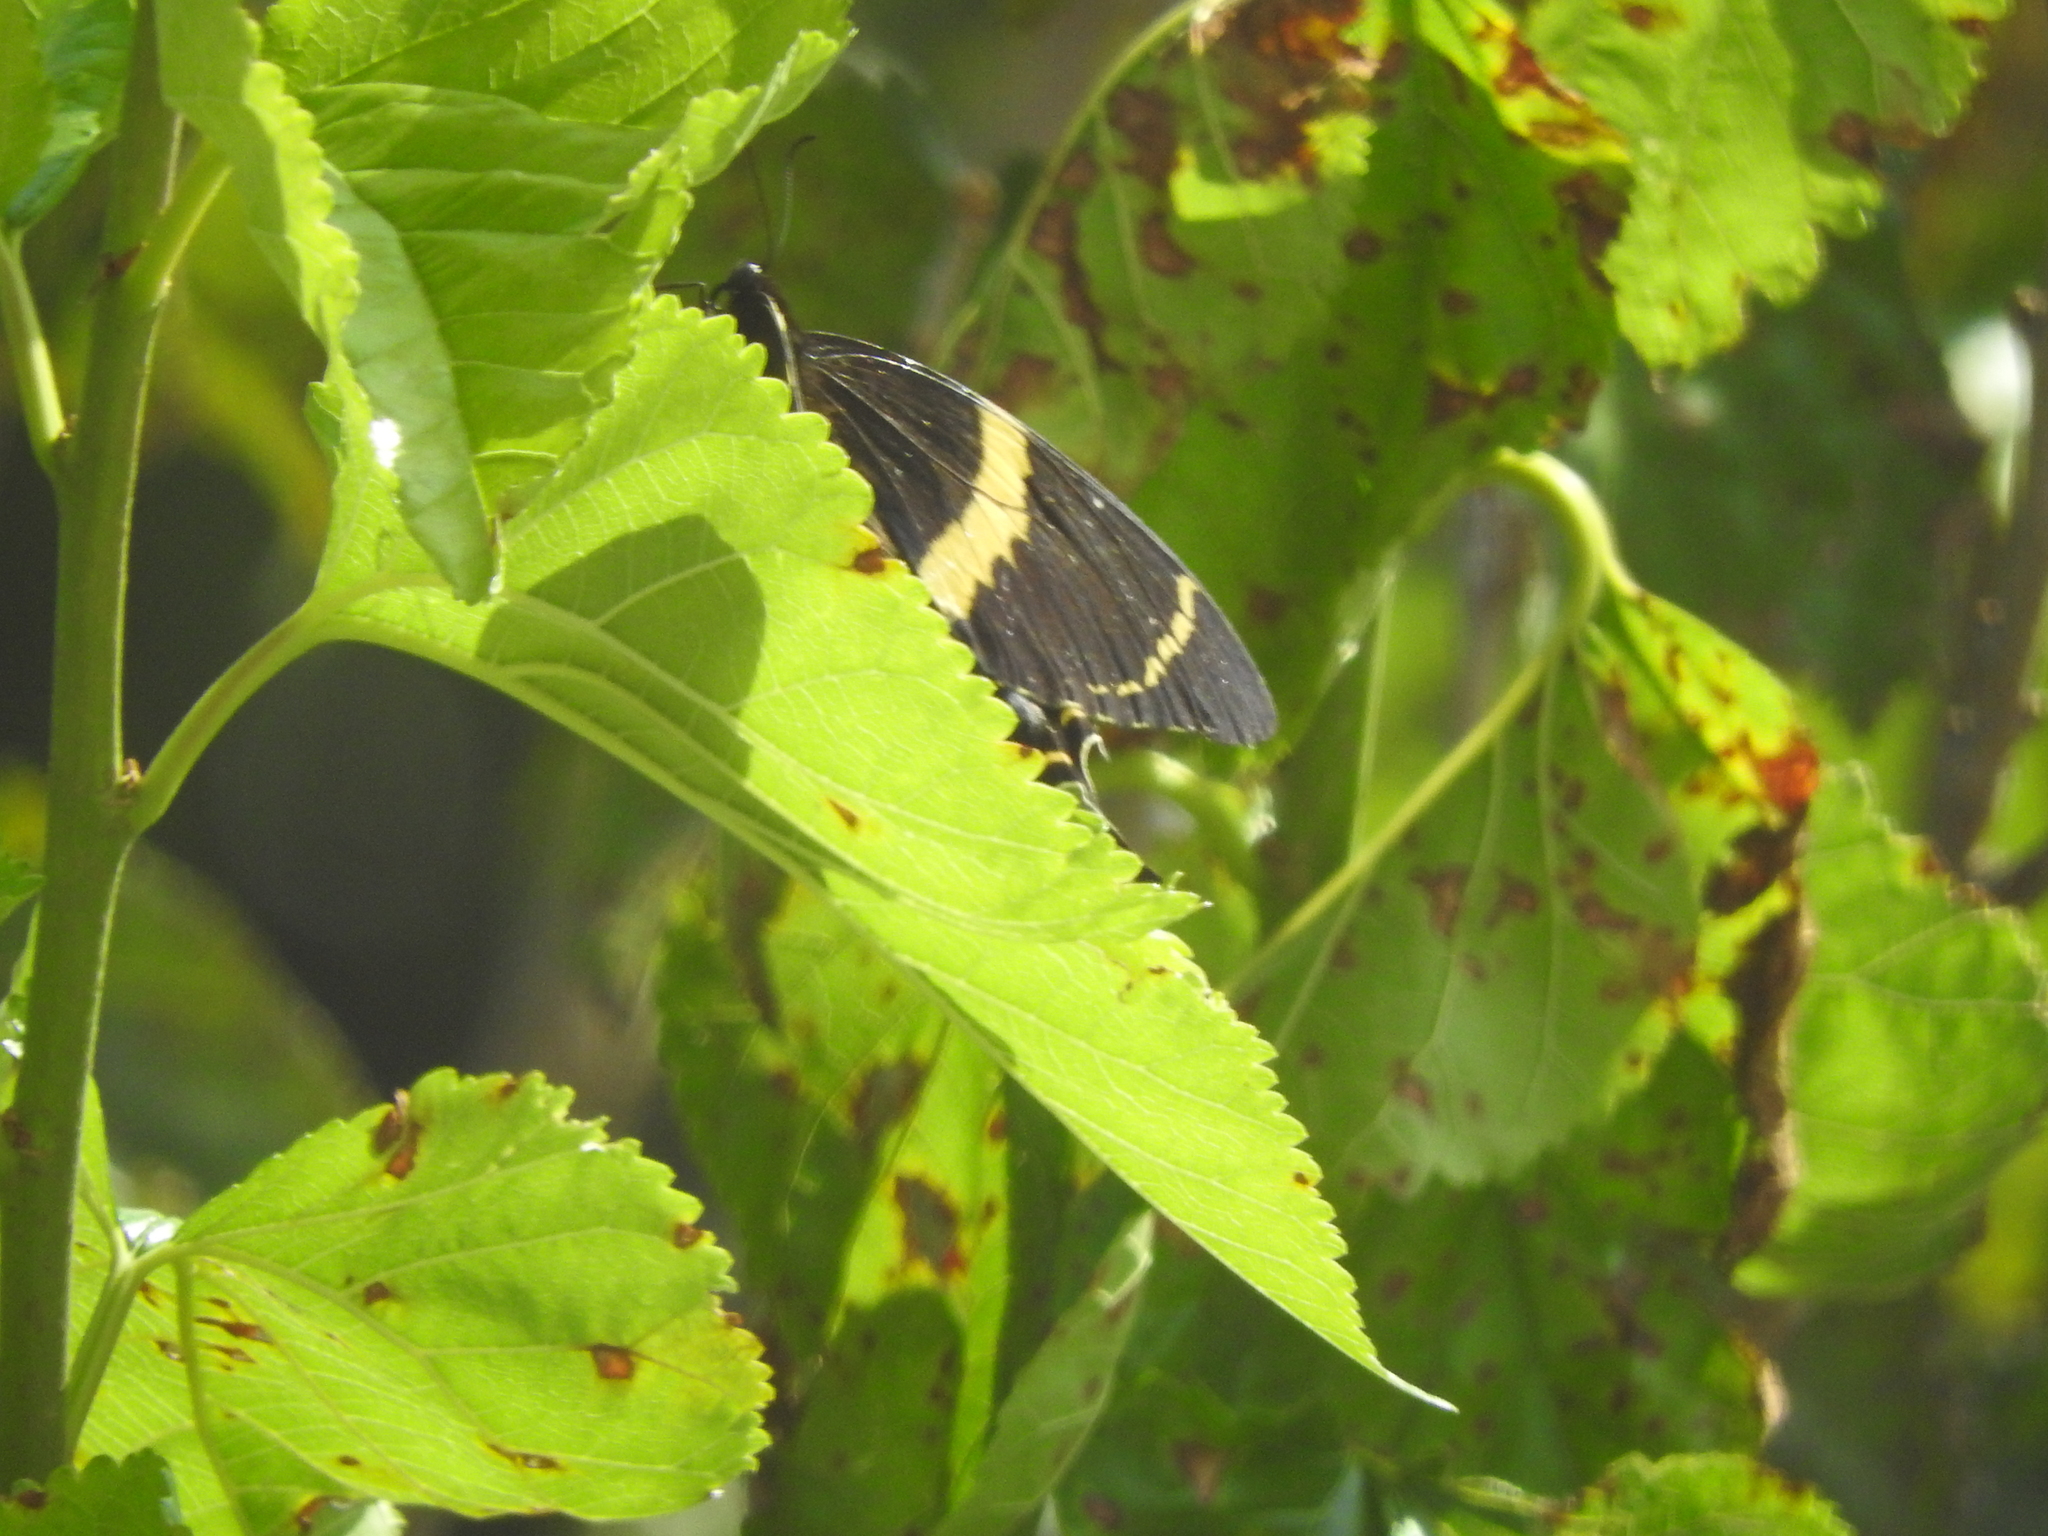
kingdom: Animalia
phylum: Arthropoda
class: Insecta
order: Lepidoptera
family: Papilionidae
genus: Papilio
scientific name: Papilio garamas
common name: Magnificent swallowtail
